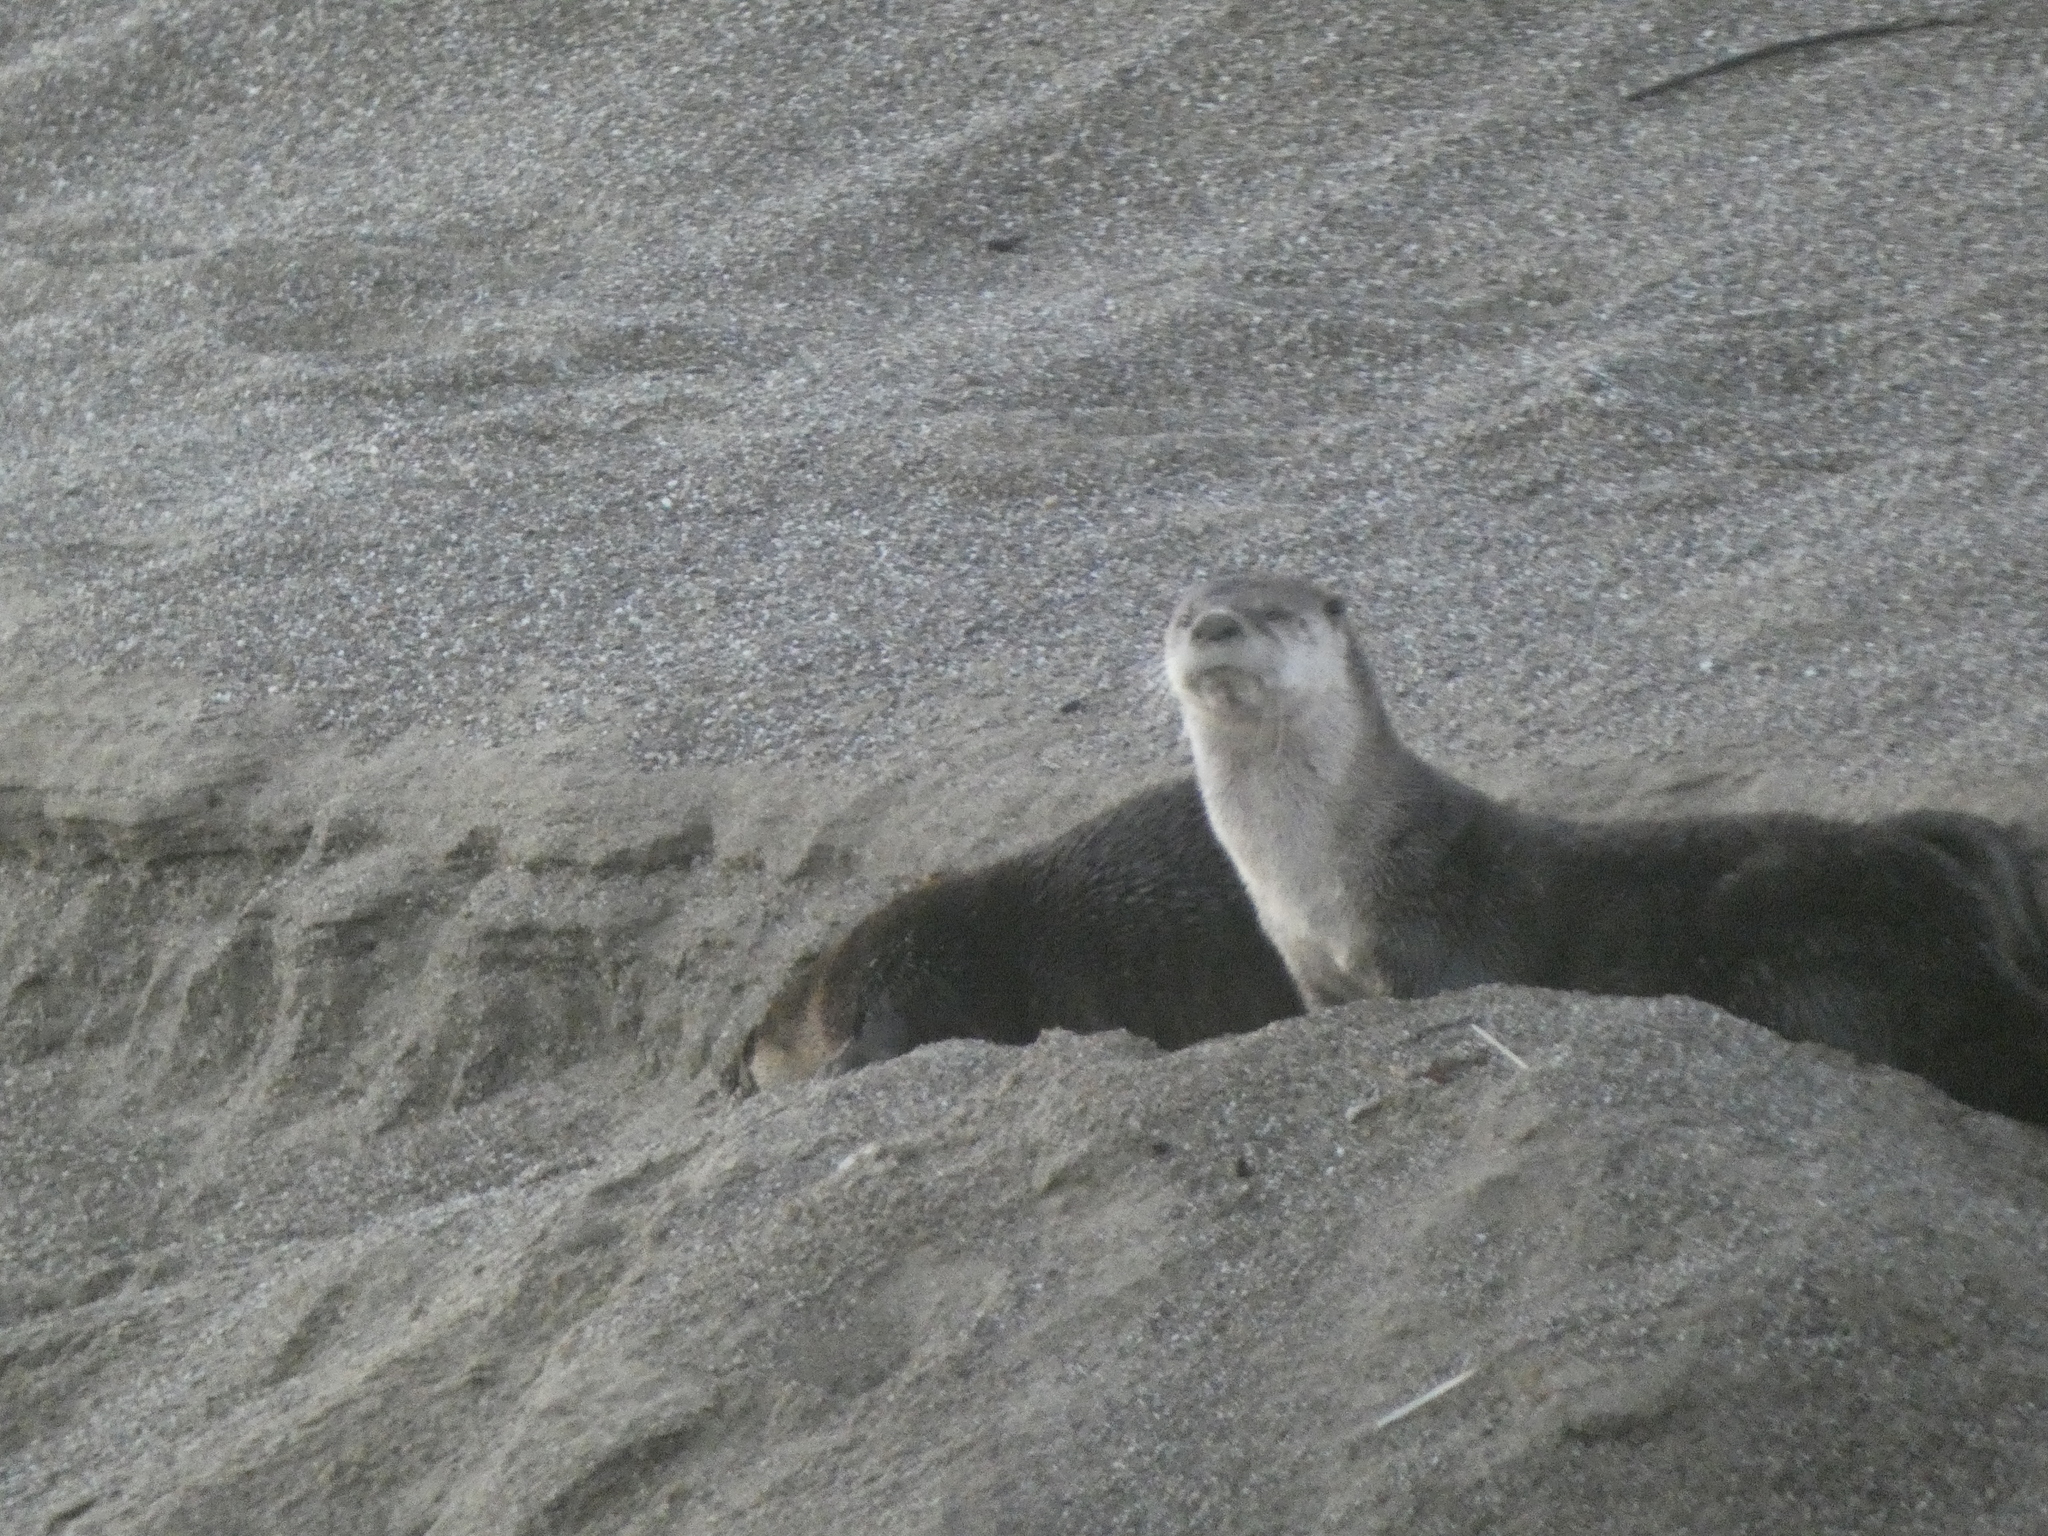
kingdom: Animalia
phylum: Chordata
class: Mammalia
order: Carnivora
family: Mustelidae
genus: Lontra
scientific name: Lontra canadensis
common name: North american river otter
